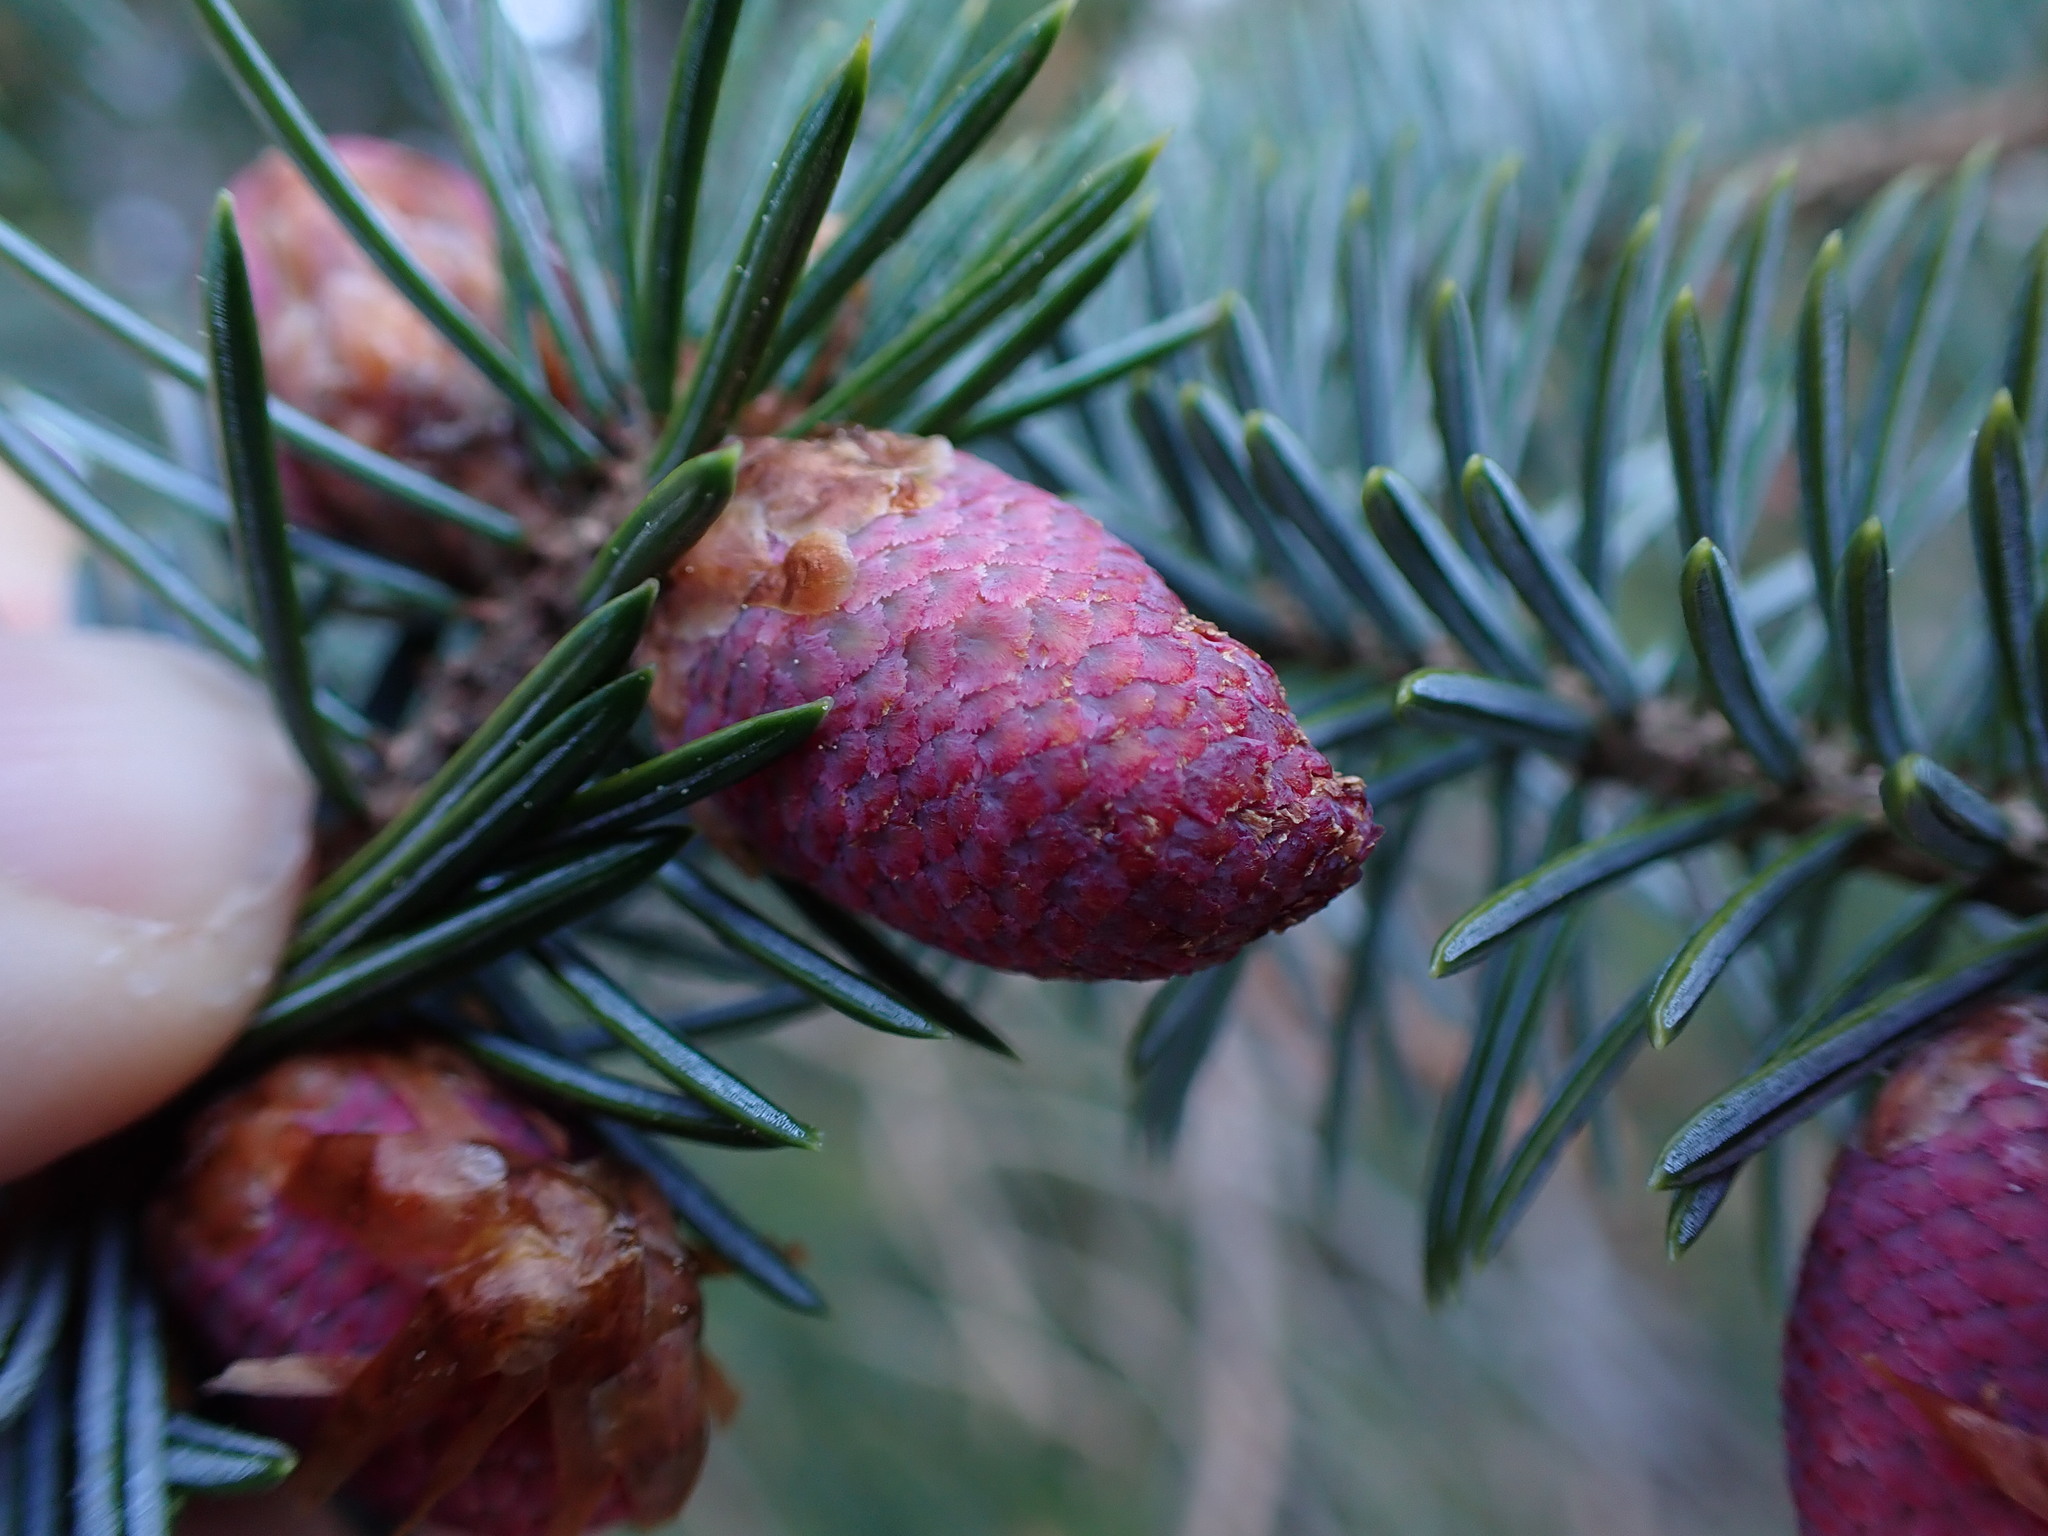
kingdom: Plantae
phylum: Tracheophyta
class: Pinopsida
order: Pinales
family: Pinaceae
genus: Picea
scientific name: Picea sitchensis
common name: Sitka spruce
